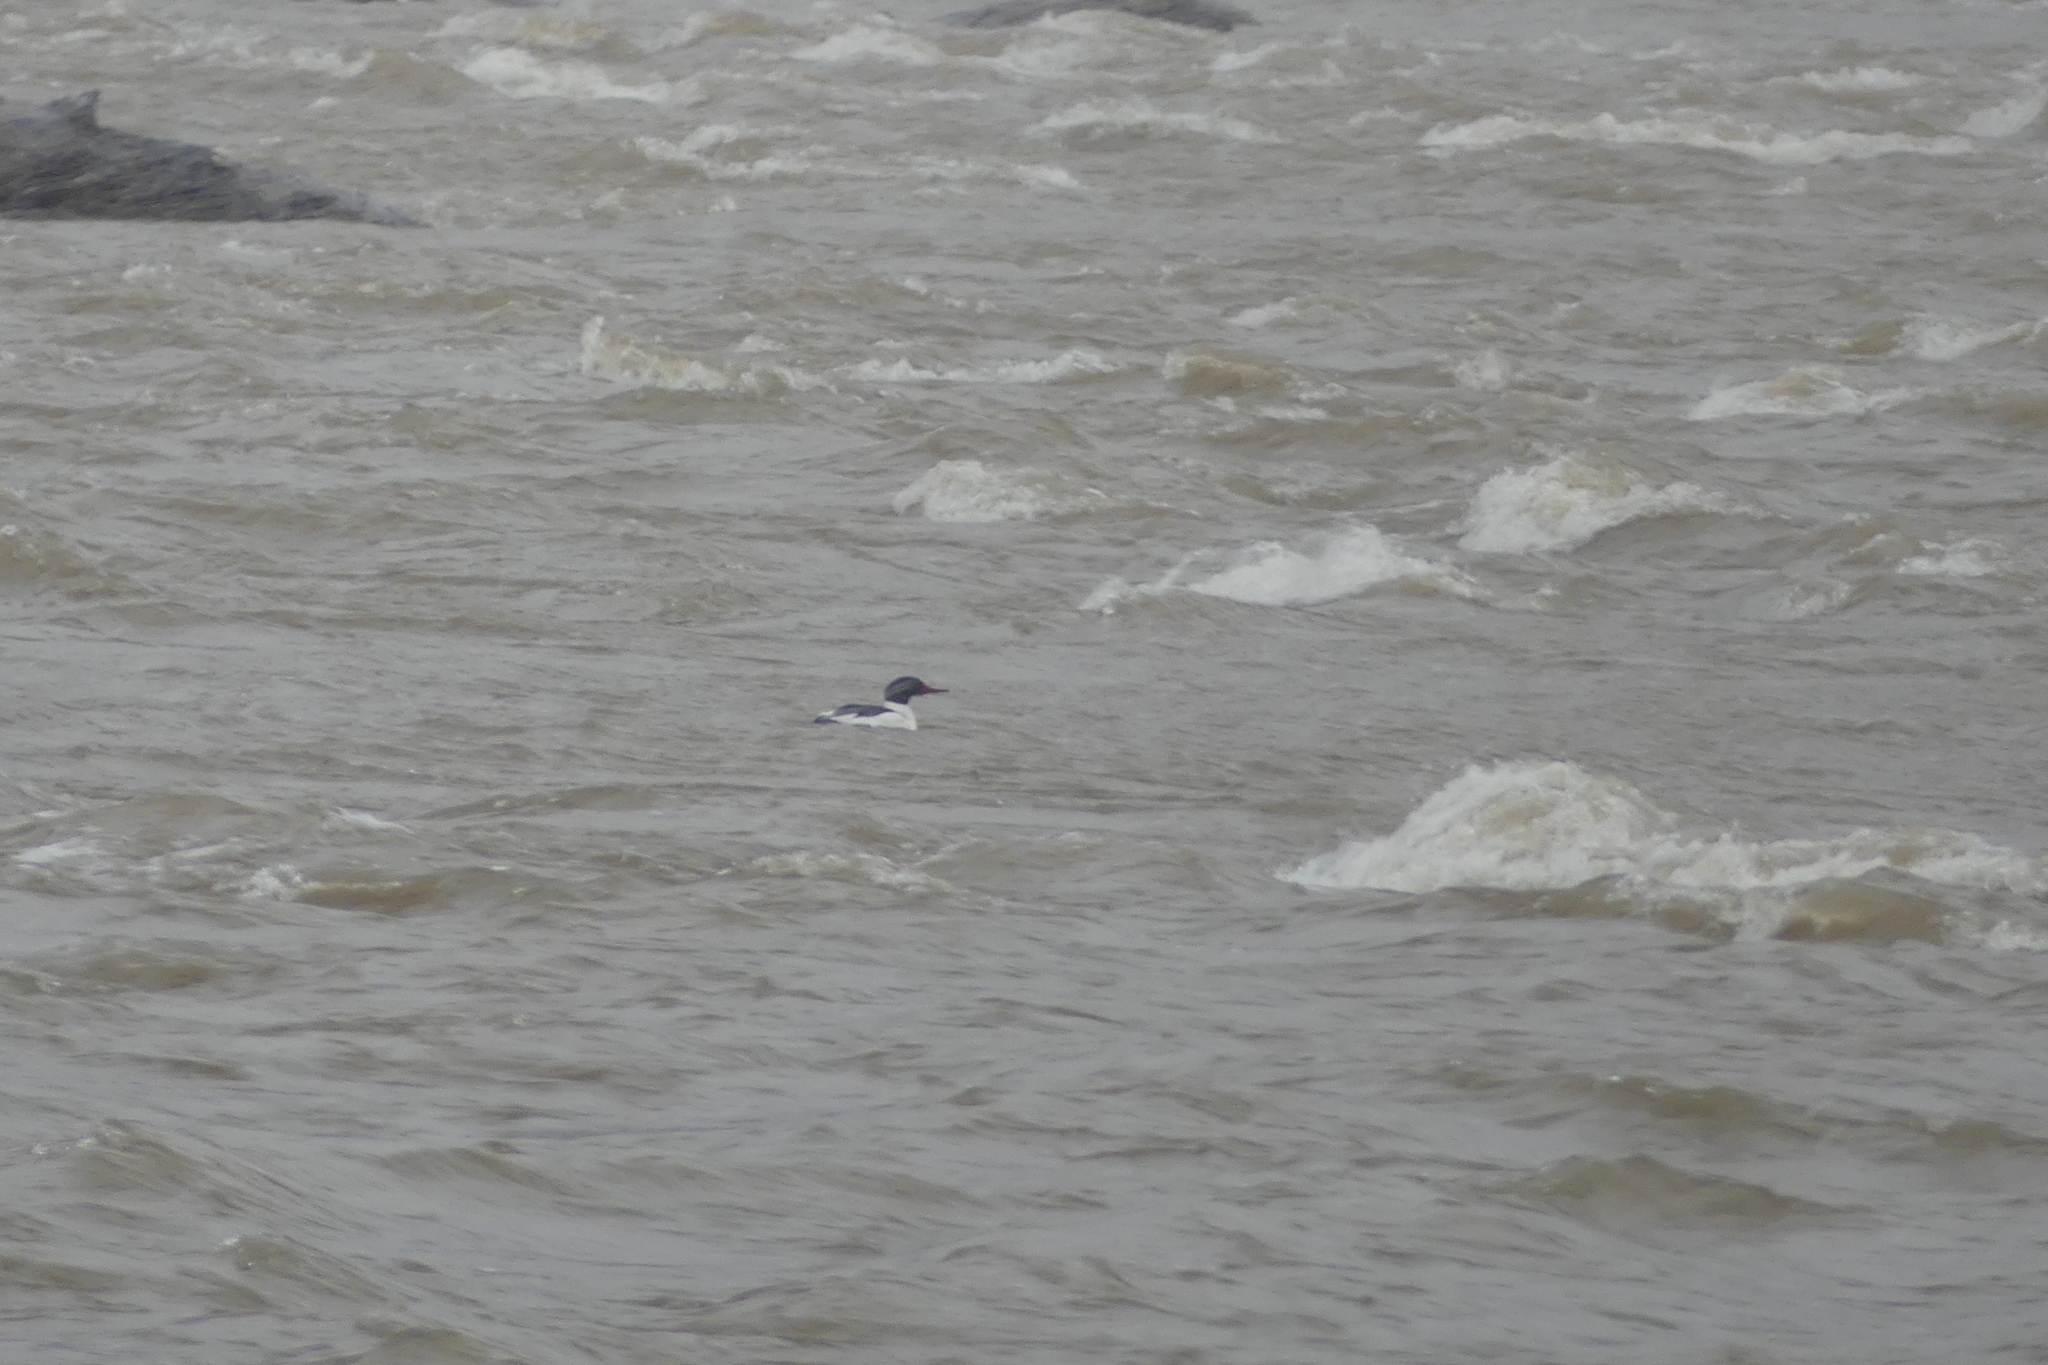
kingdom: Animalia
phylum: Chordata
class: Aves
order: Anseriformes
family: Anatidae
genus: Mergus
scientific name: Mergus merganser
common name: Common merganser
